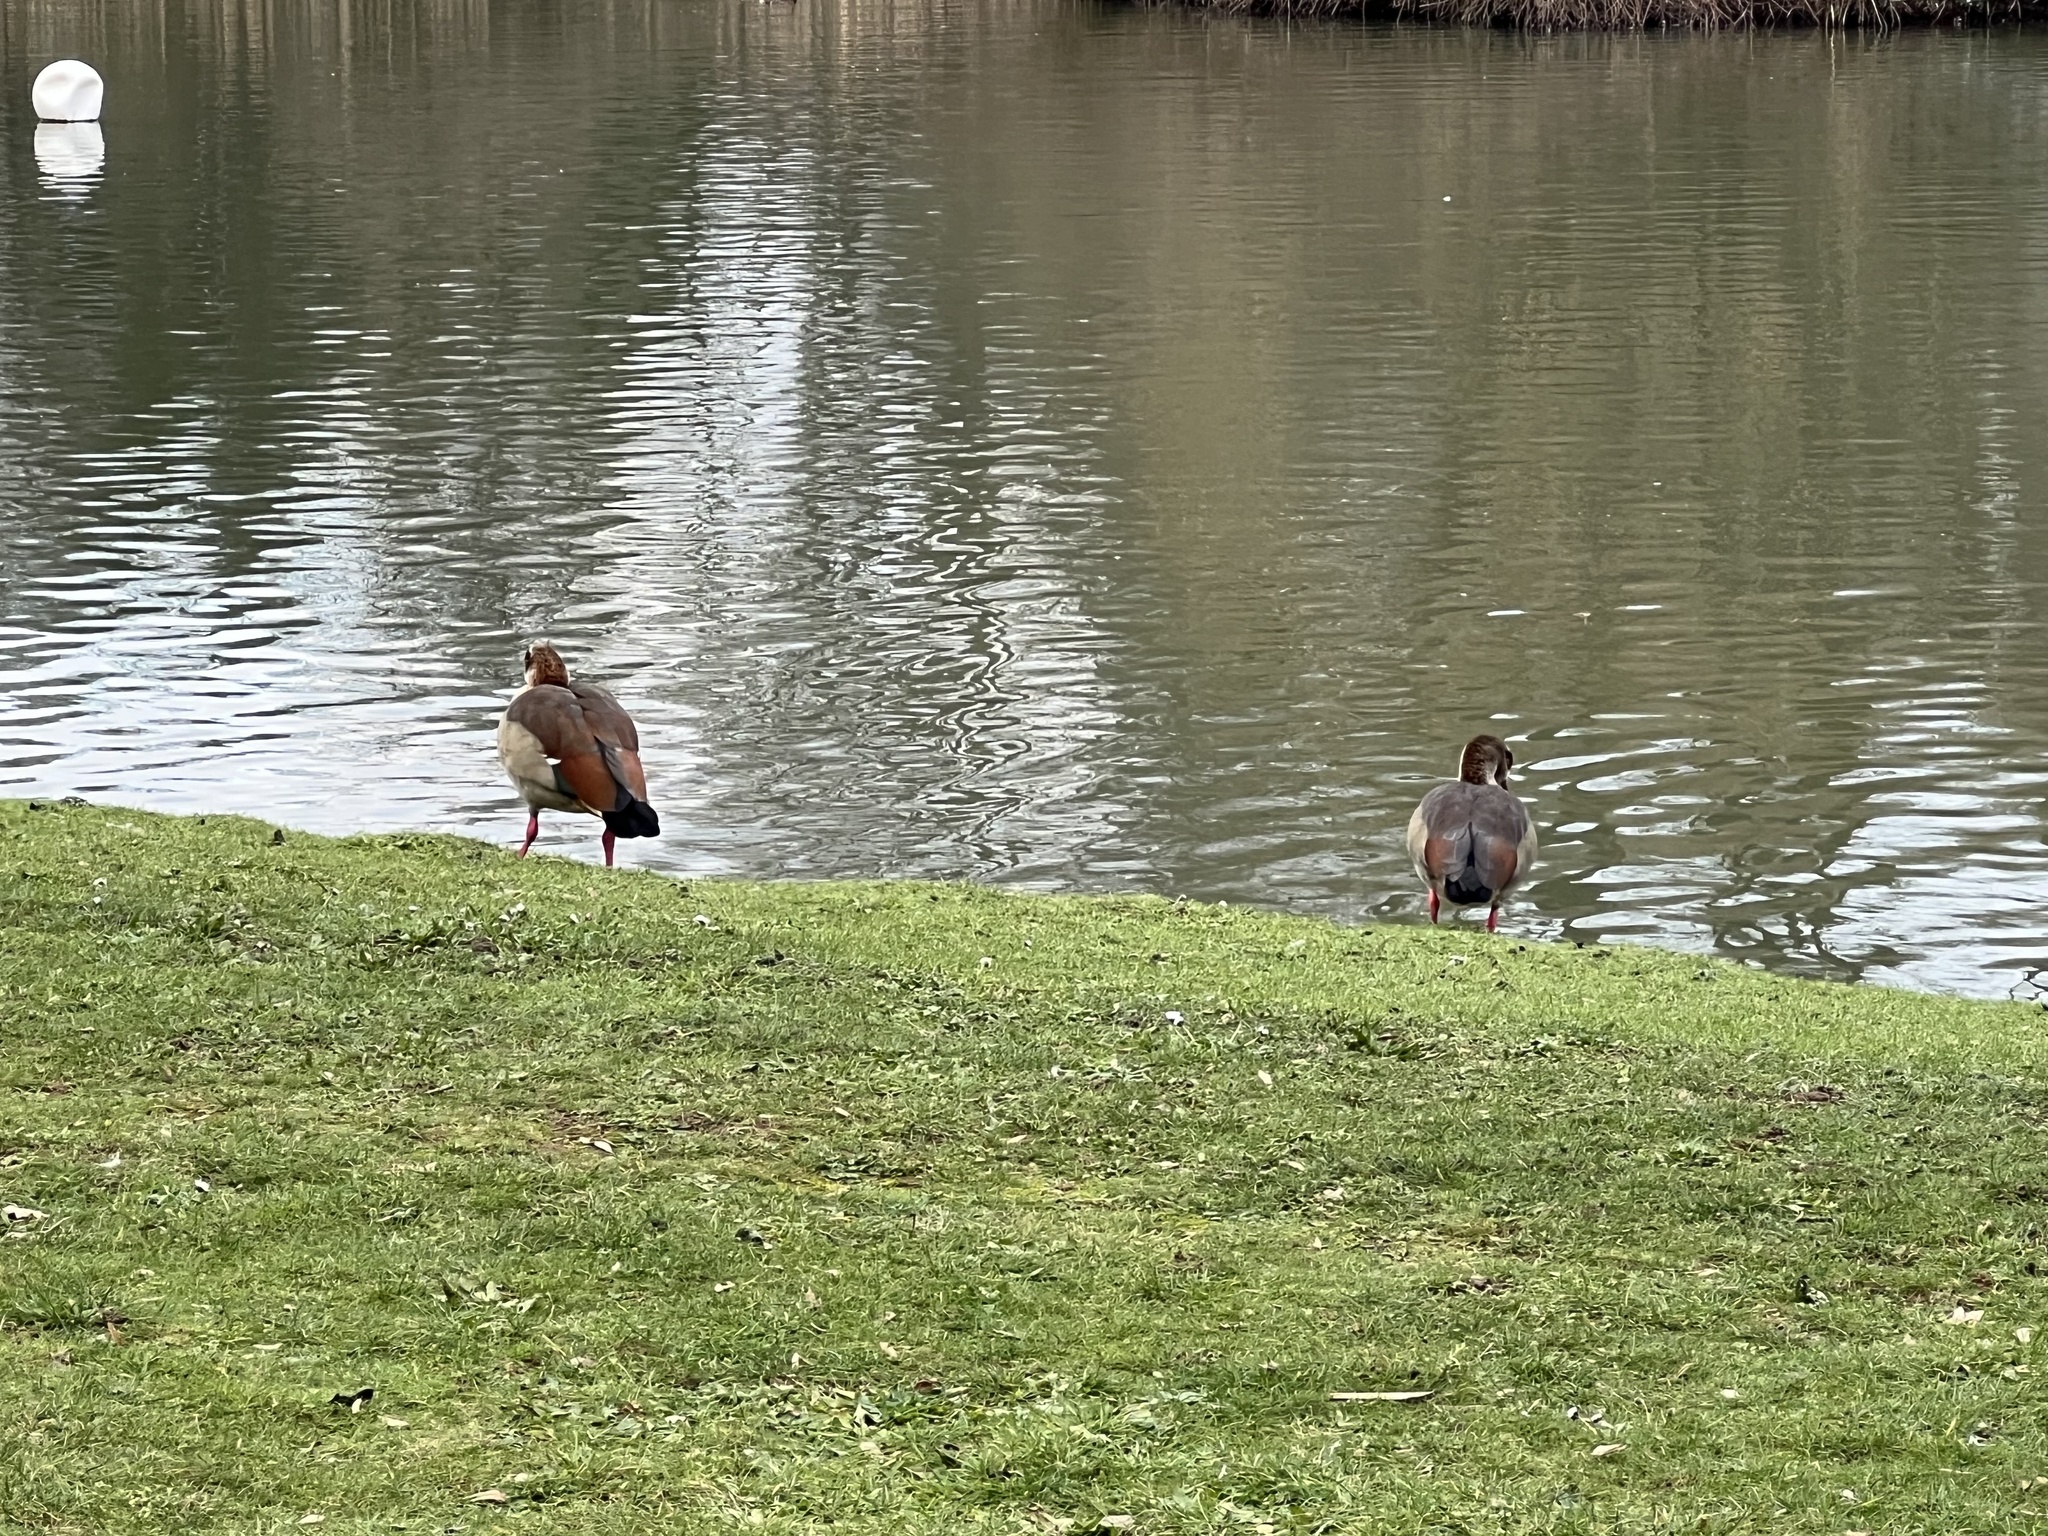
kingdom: Animalia
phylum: Chordata
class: Aves
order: Anseriformes
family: Anatidae
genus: Alopochen
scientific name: Alopochen aegyptiaca
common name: Egyptian goose
